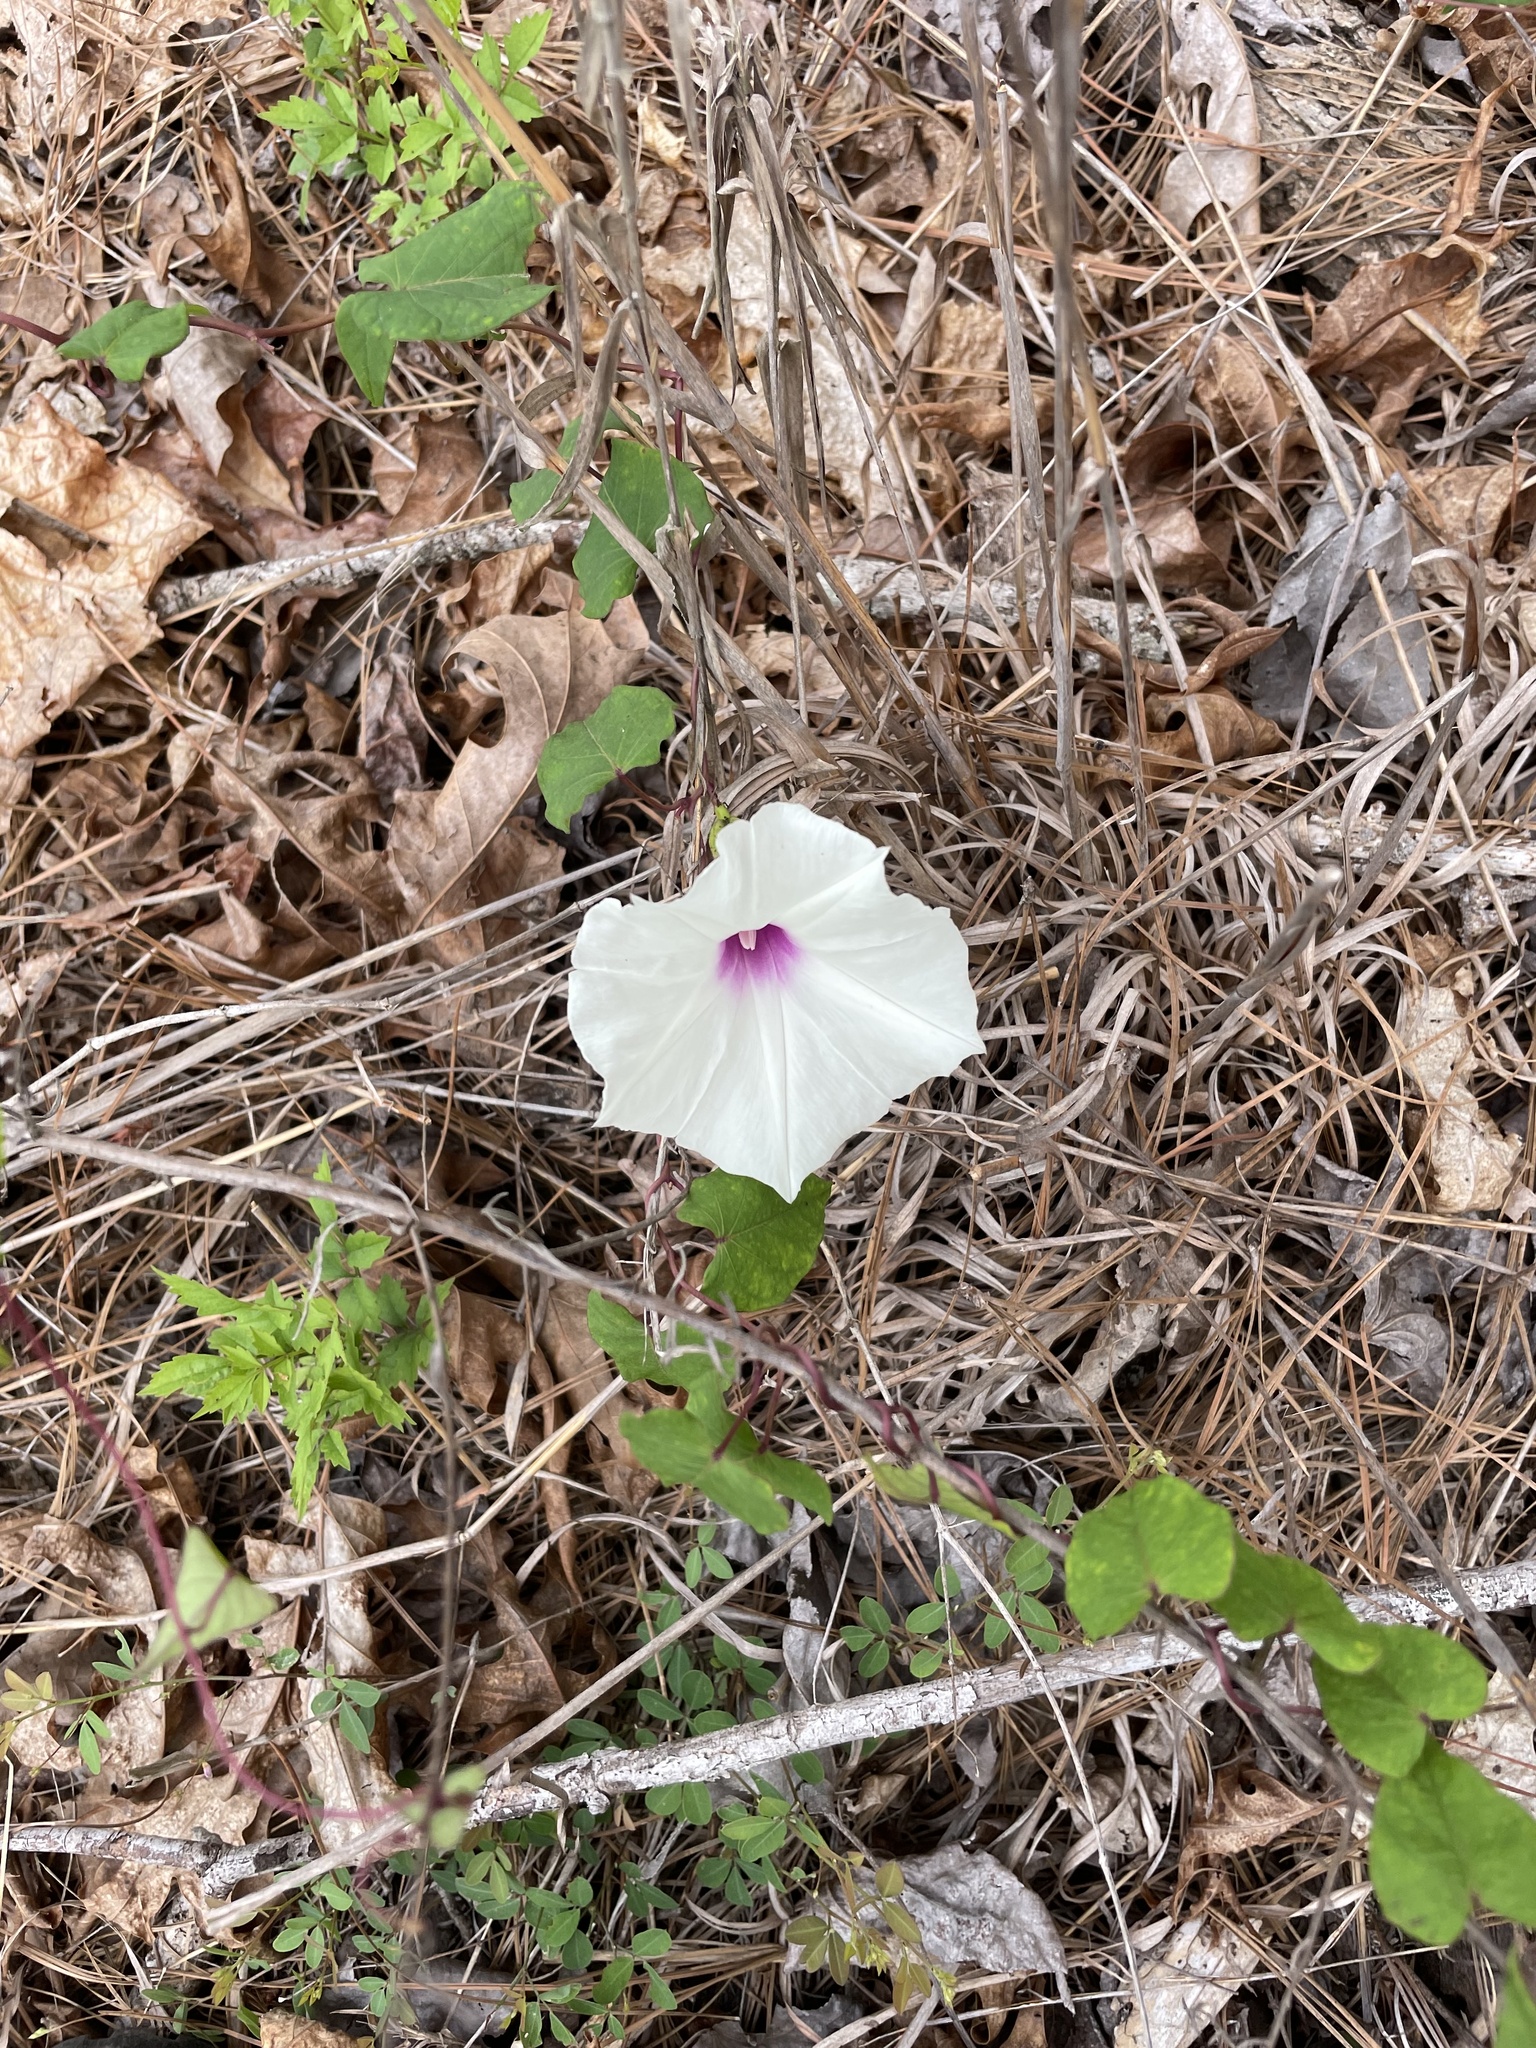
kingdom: Plantae
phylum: Tracheophyta
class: Magnoliopsida
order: Solanales
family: Convolvulaceae
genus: Ipomoea
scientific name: Ipomoea pandurata
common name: Man-of-the-earth
